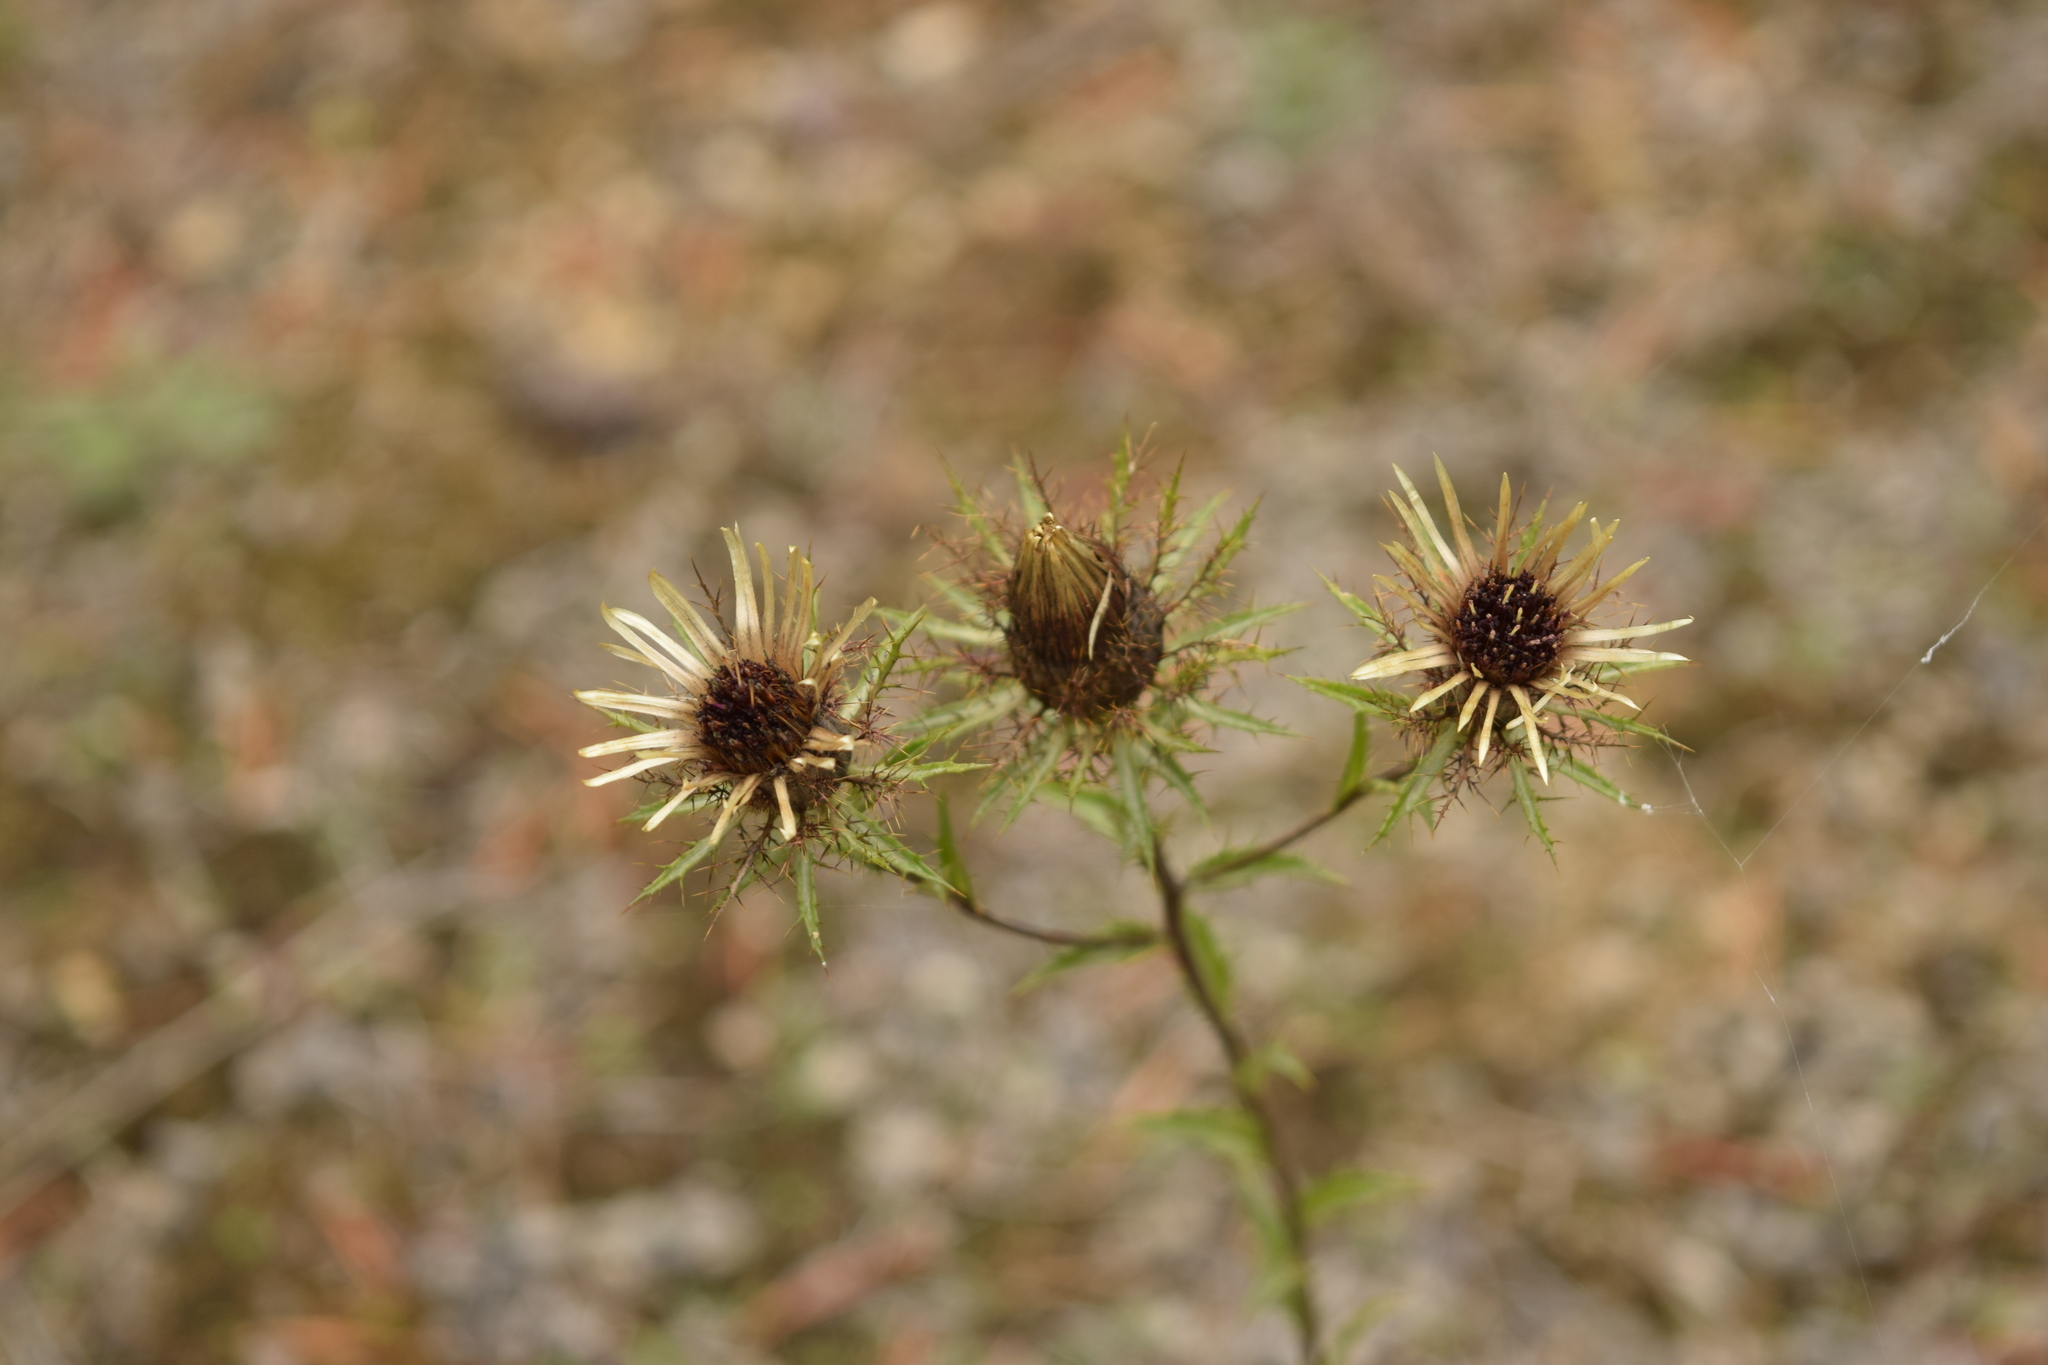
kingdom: Plantae
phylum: Tracheophyta
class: Magnoliopsida
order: Asterales
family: Asteraceae
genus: Carlina
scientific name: Carlina biebersteinii
